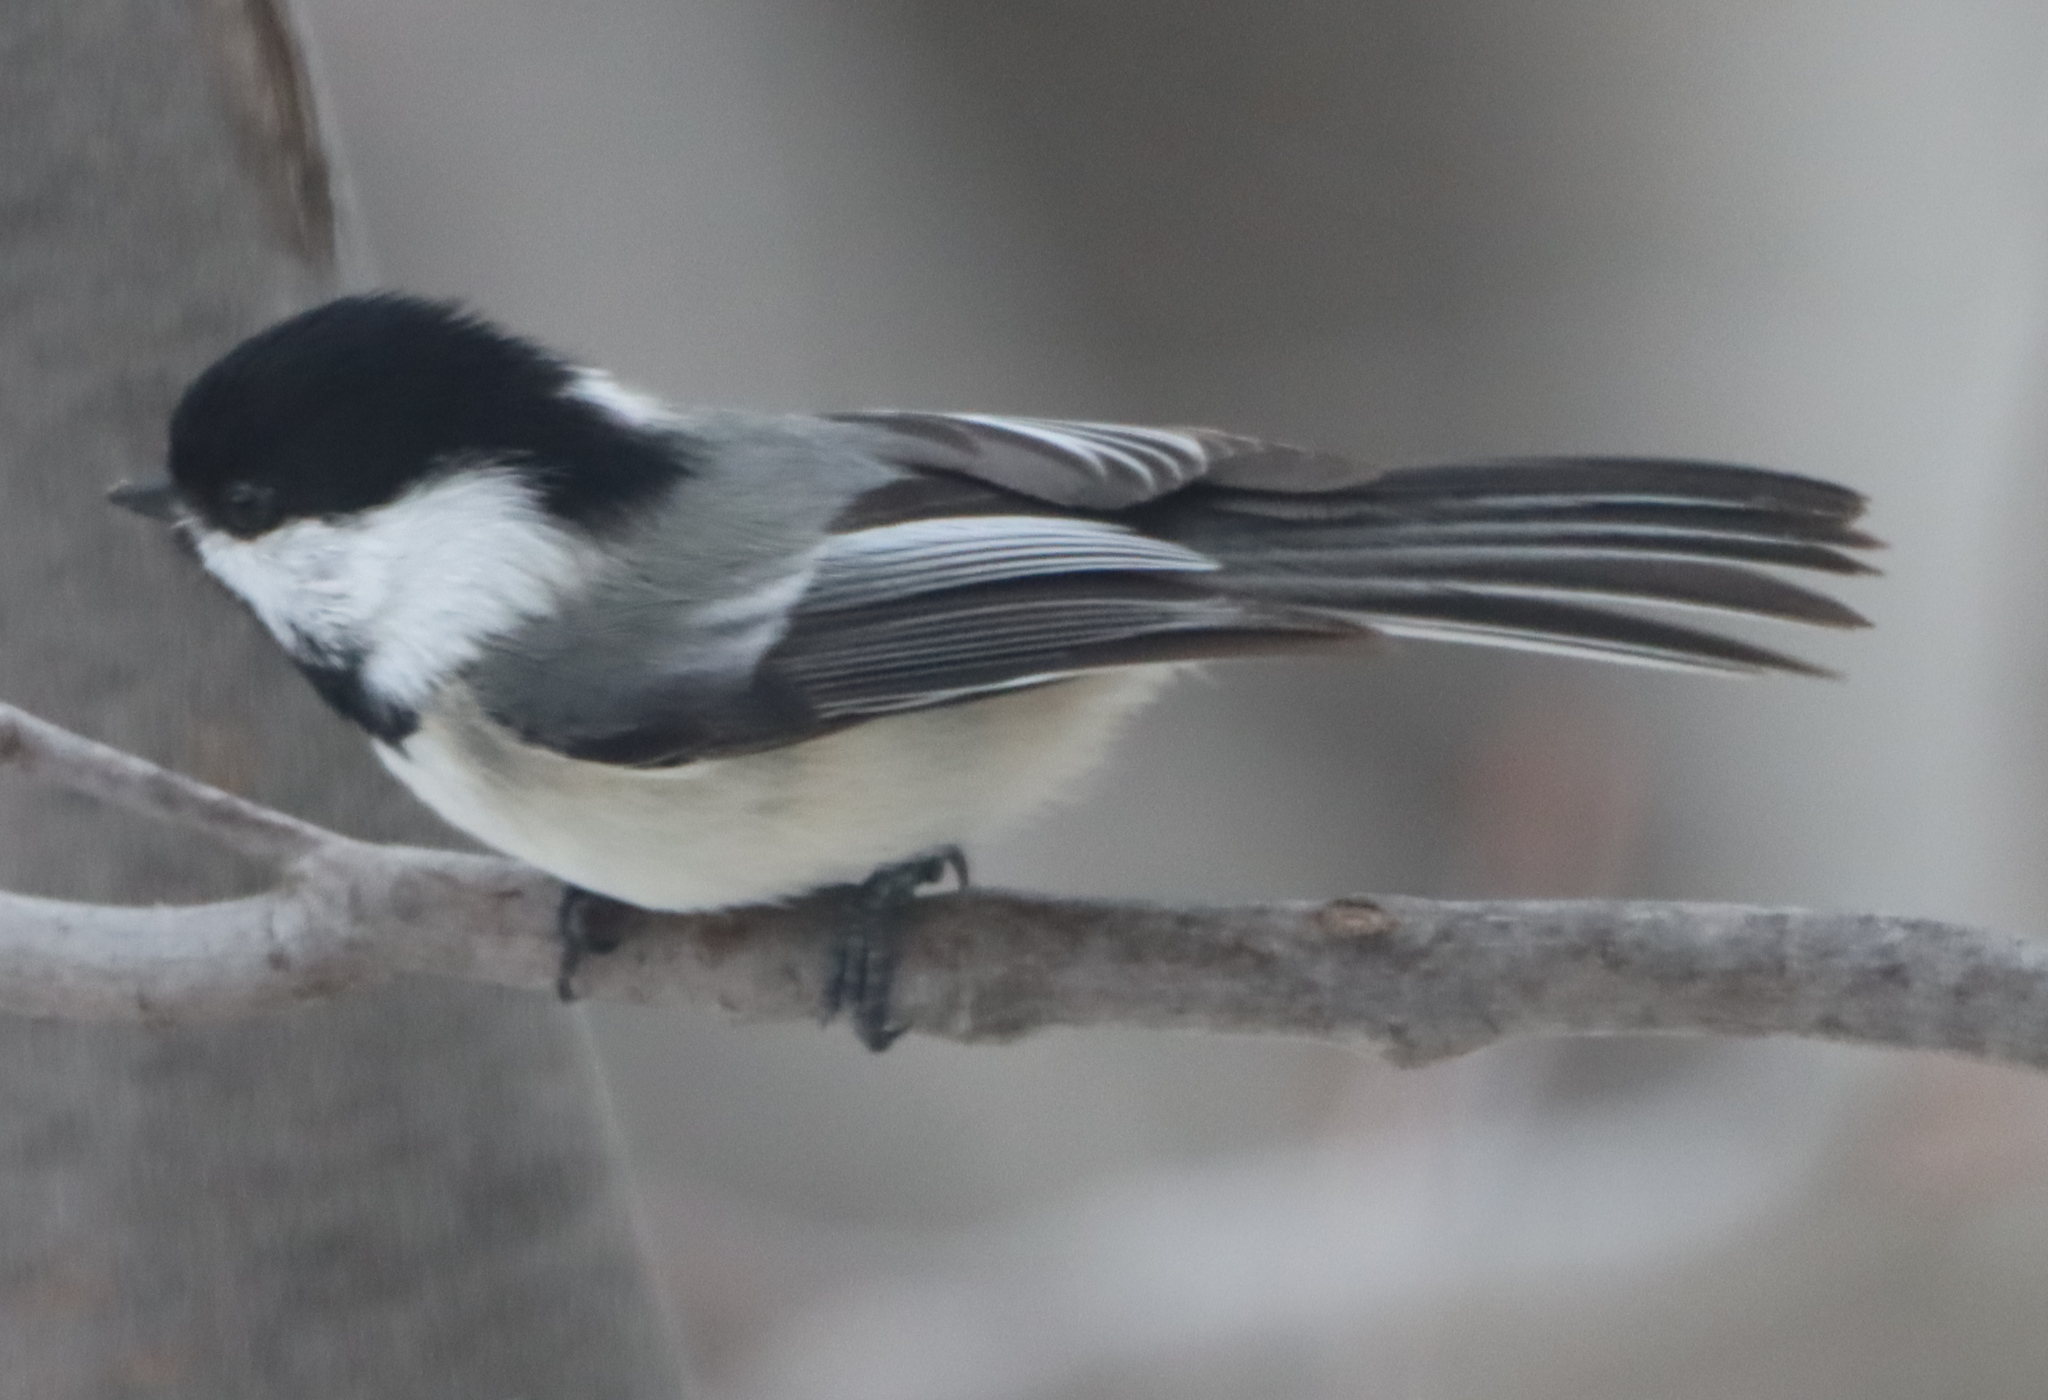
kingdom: Animalia
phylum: Chordata
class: Aves
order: Passeriformes
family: Paridae
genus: Poecile
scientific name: Poecile atricapillus
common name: Black-capped chickadee
